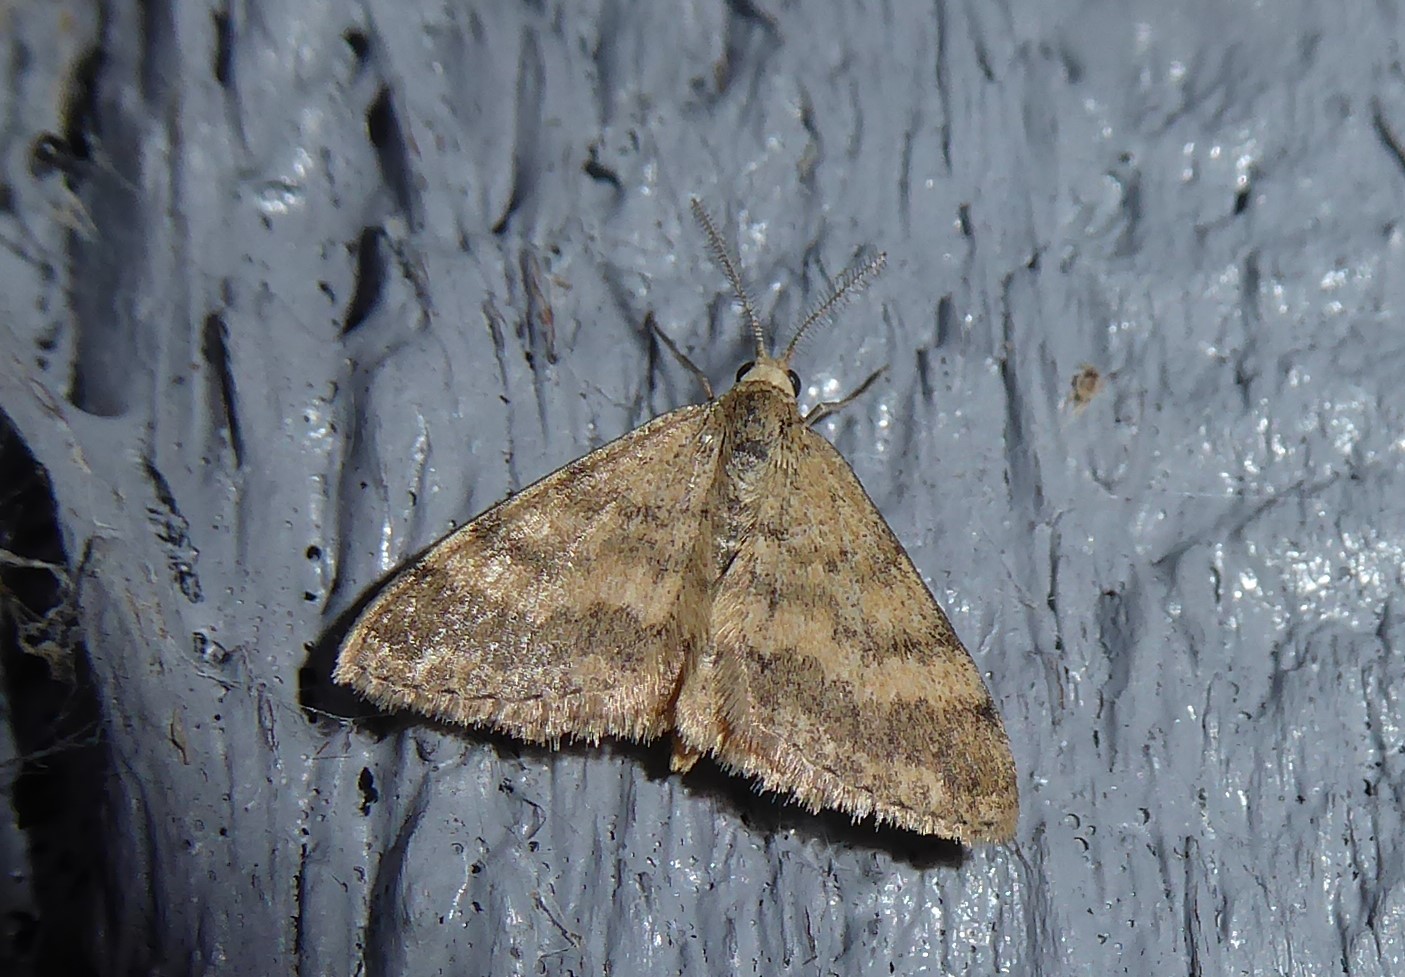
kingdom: Animalia
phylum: Arthropoda
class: Insecta
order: Lepidoptera
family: Geometridae
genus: Scopula
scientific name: Scopula rubraria
